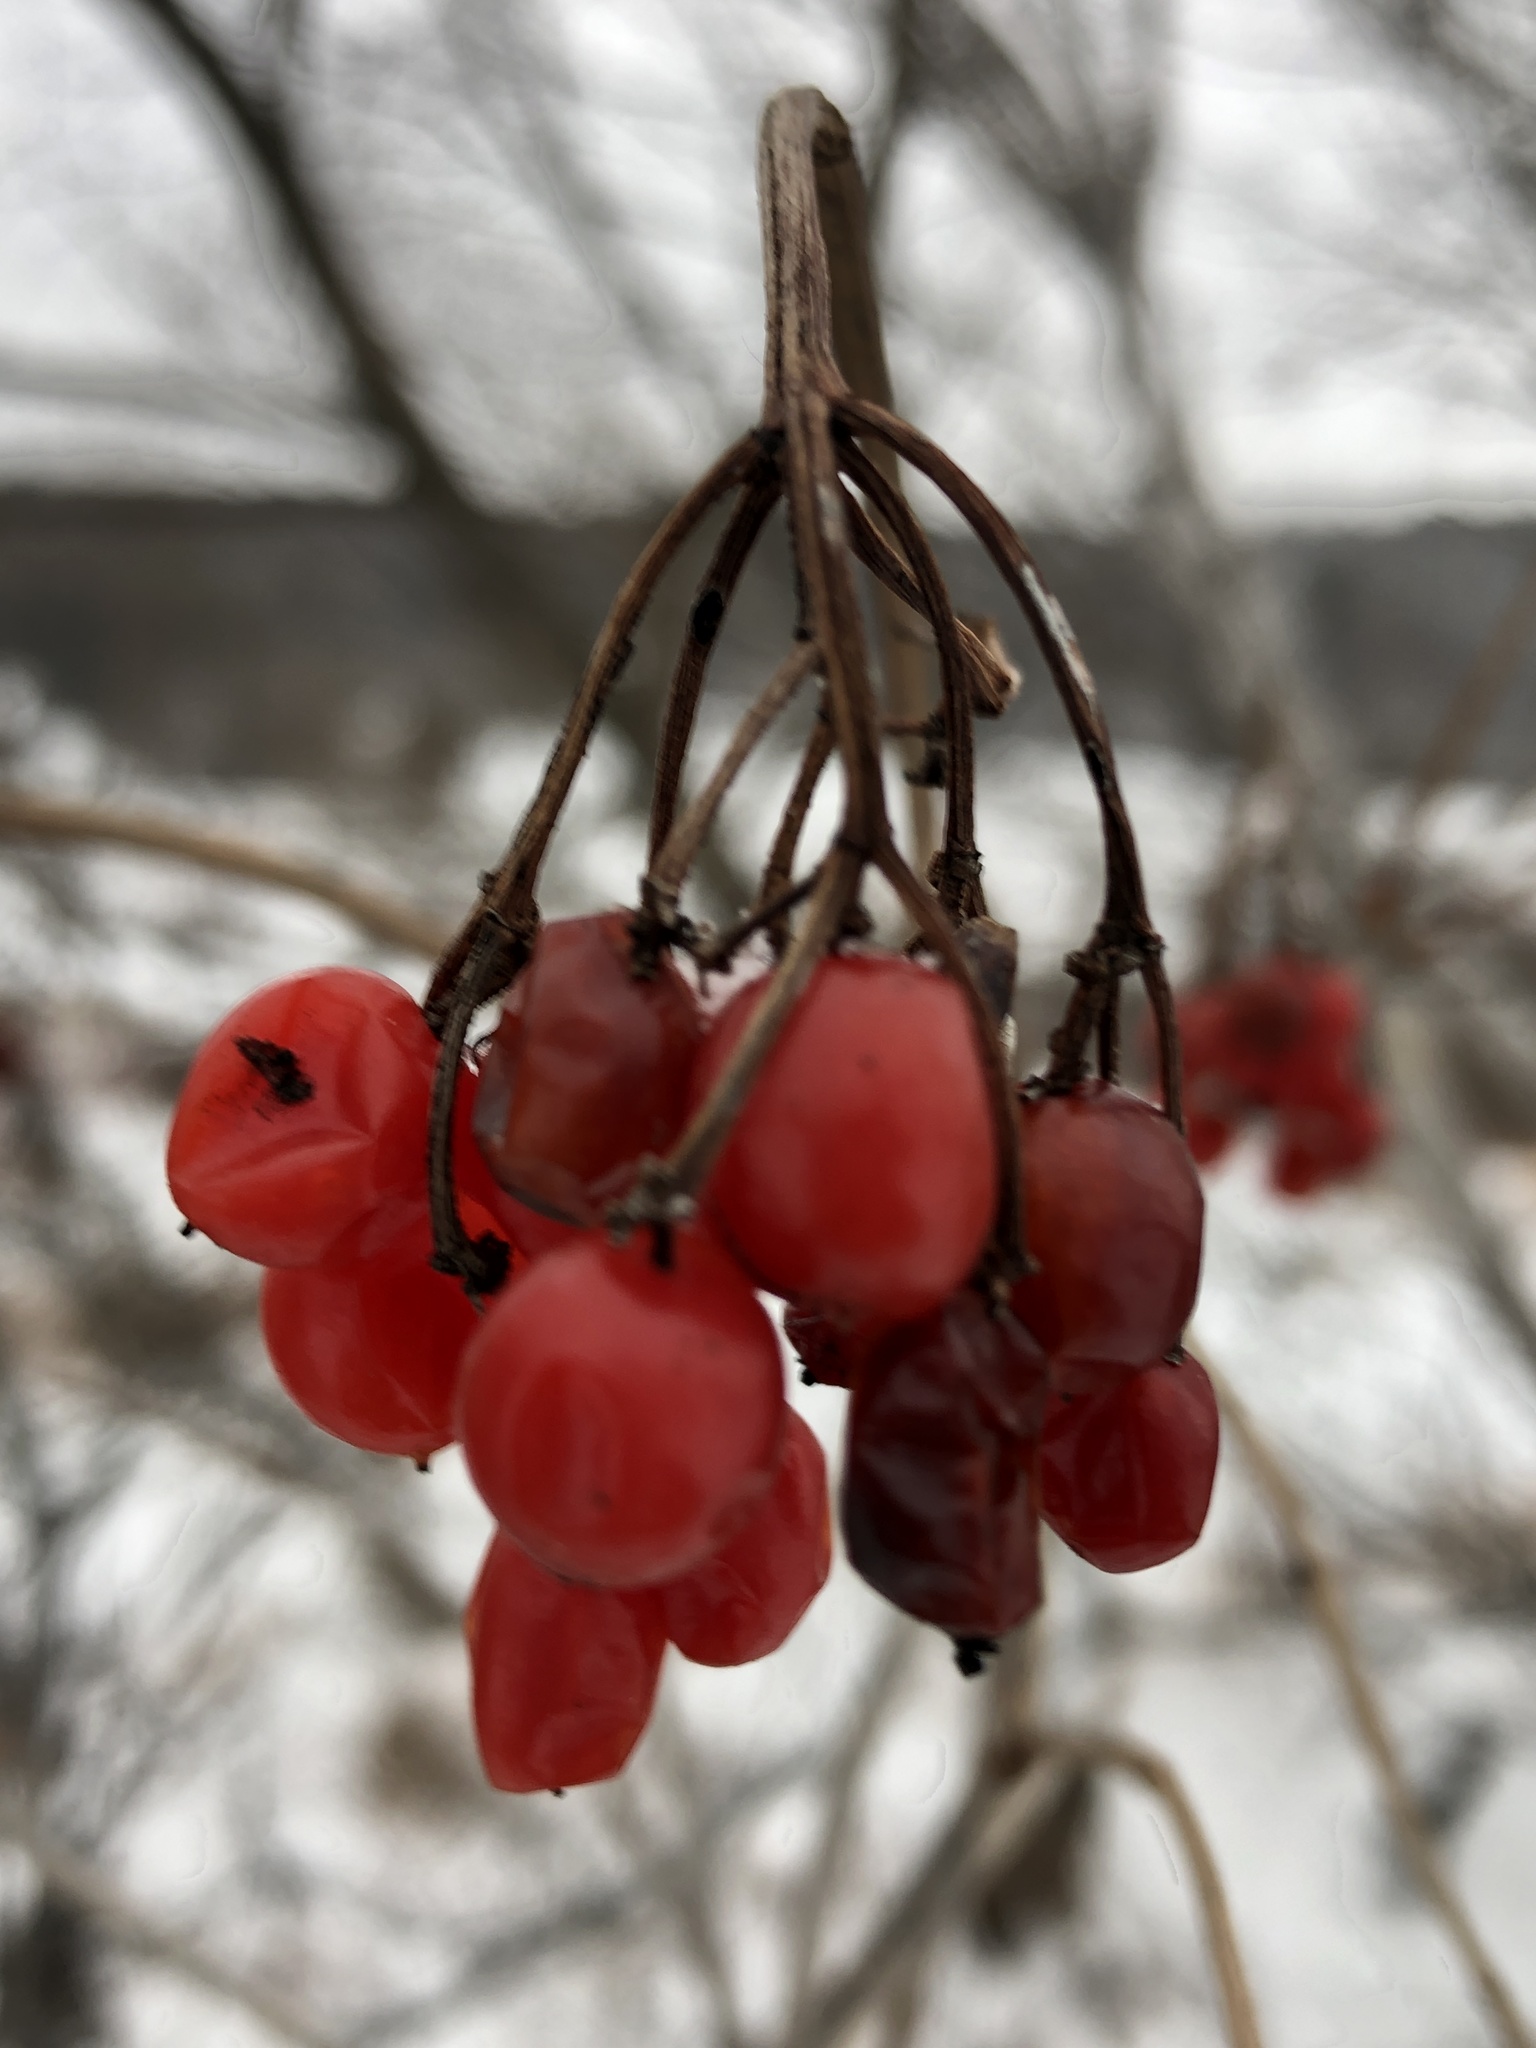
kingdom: Plantae
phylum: Tracheophyta
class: Magnoliopsida
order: Dipsacales
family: Viburnaceae
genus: Viburnum
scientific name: Viburnum opulus
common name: Guelder-rose
